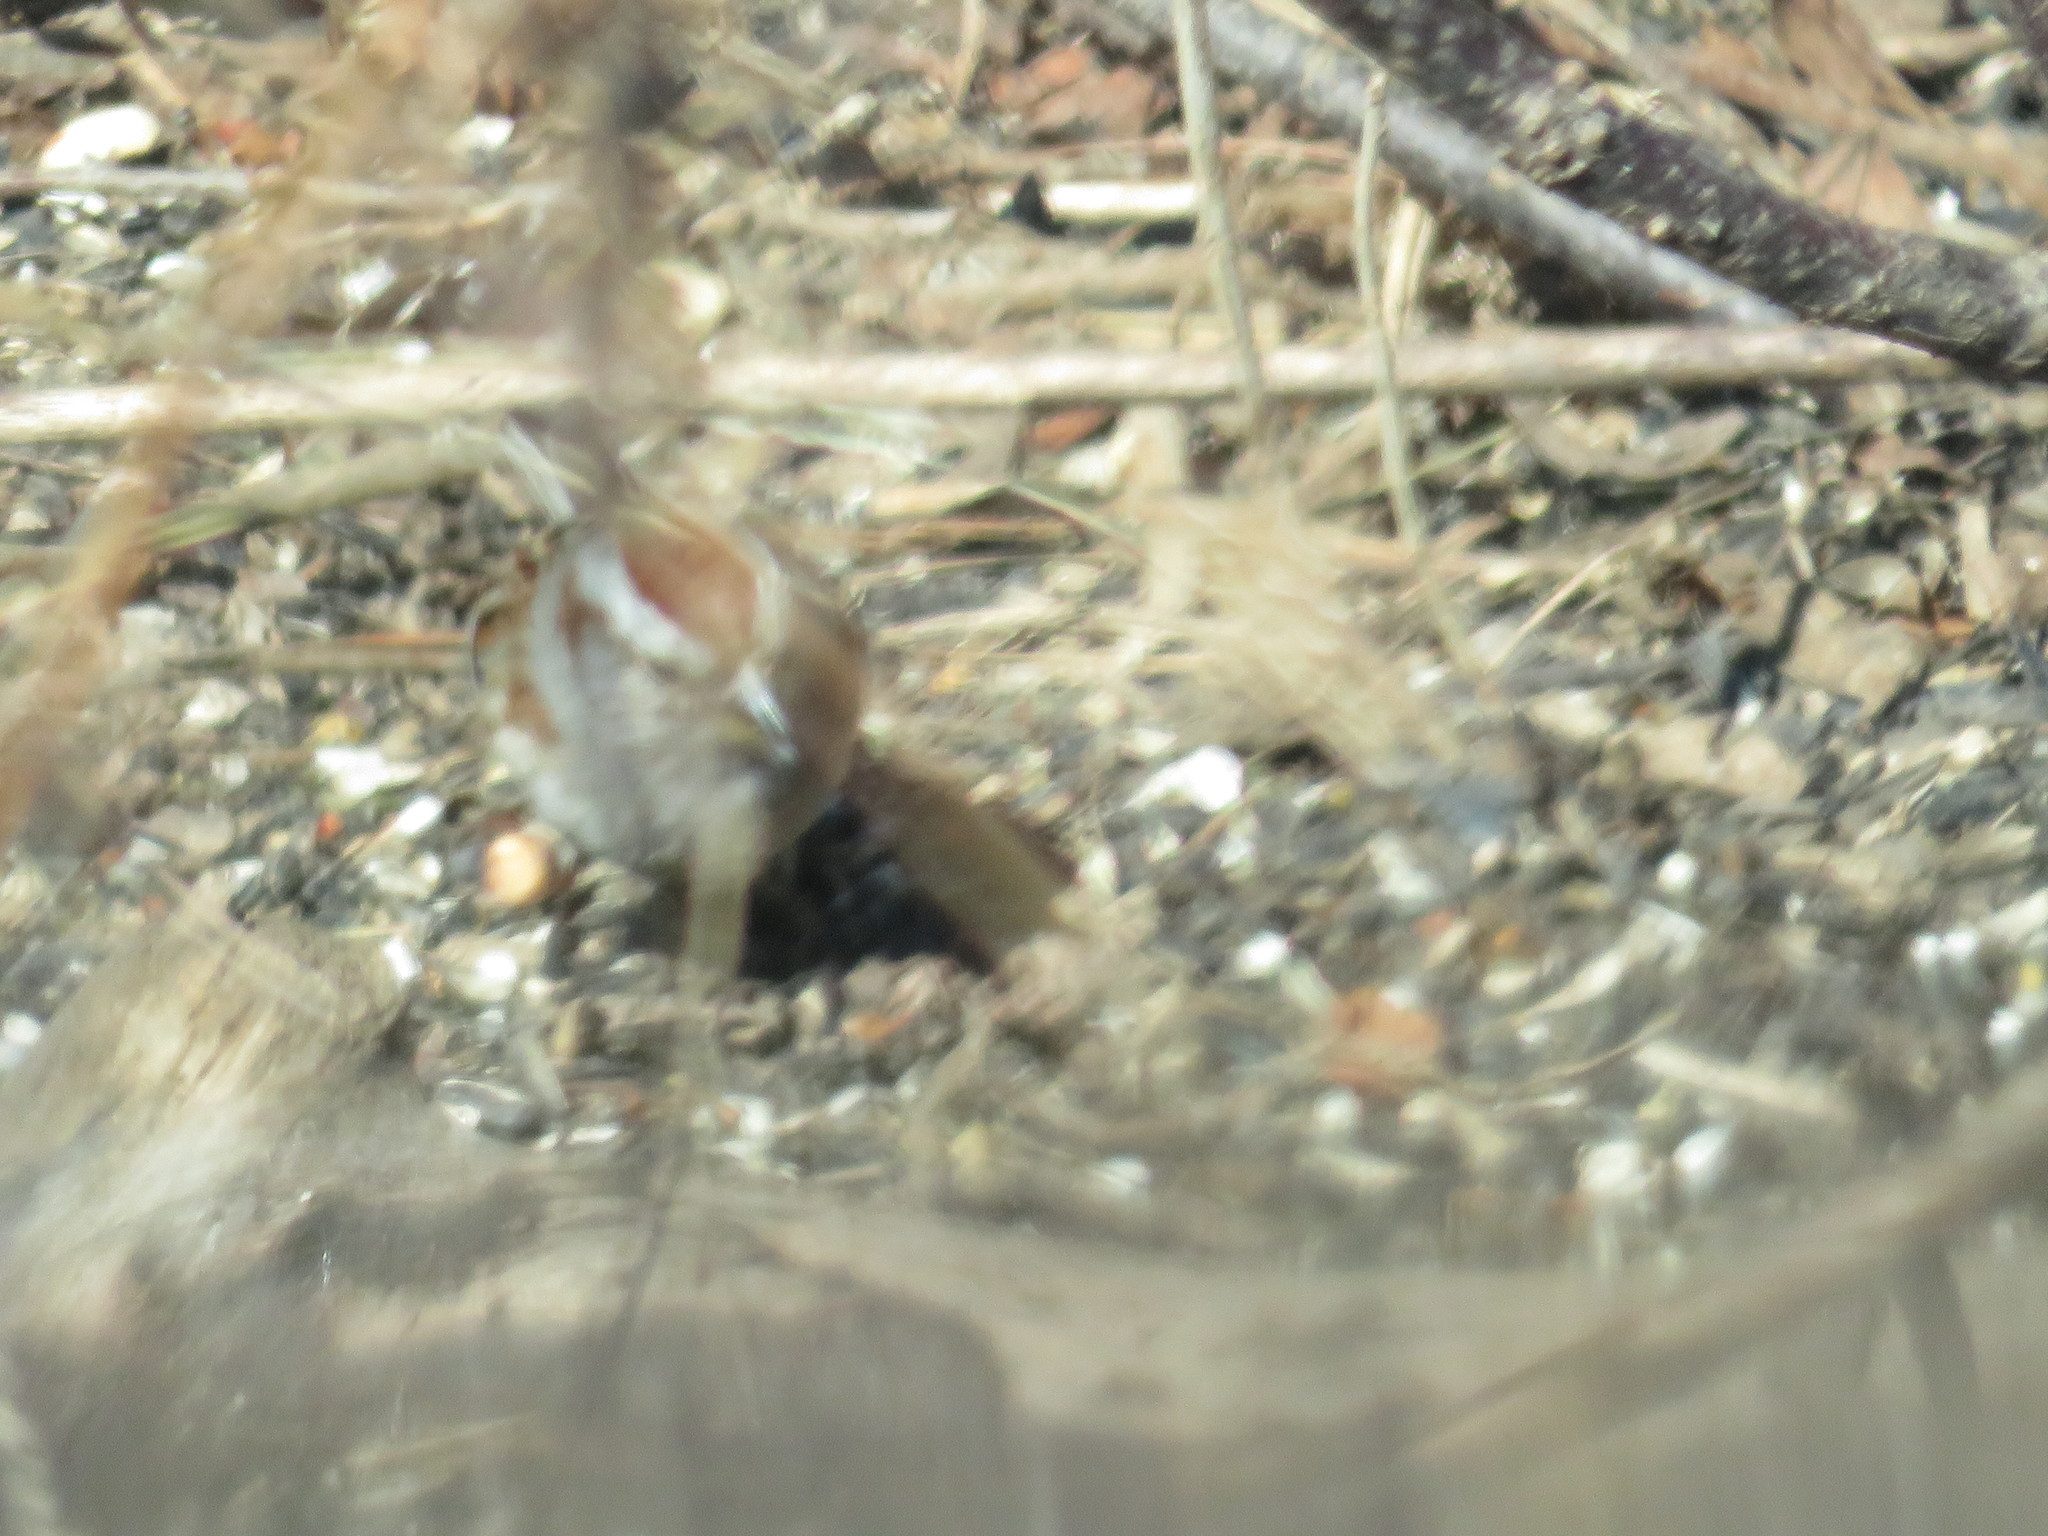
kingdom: Animalia
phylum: Chordata
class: Aves
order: Passeriformes
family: Passerellidae
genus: Spizelloides
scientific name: Spizelloides arborea
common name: American tree sparrow
